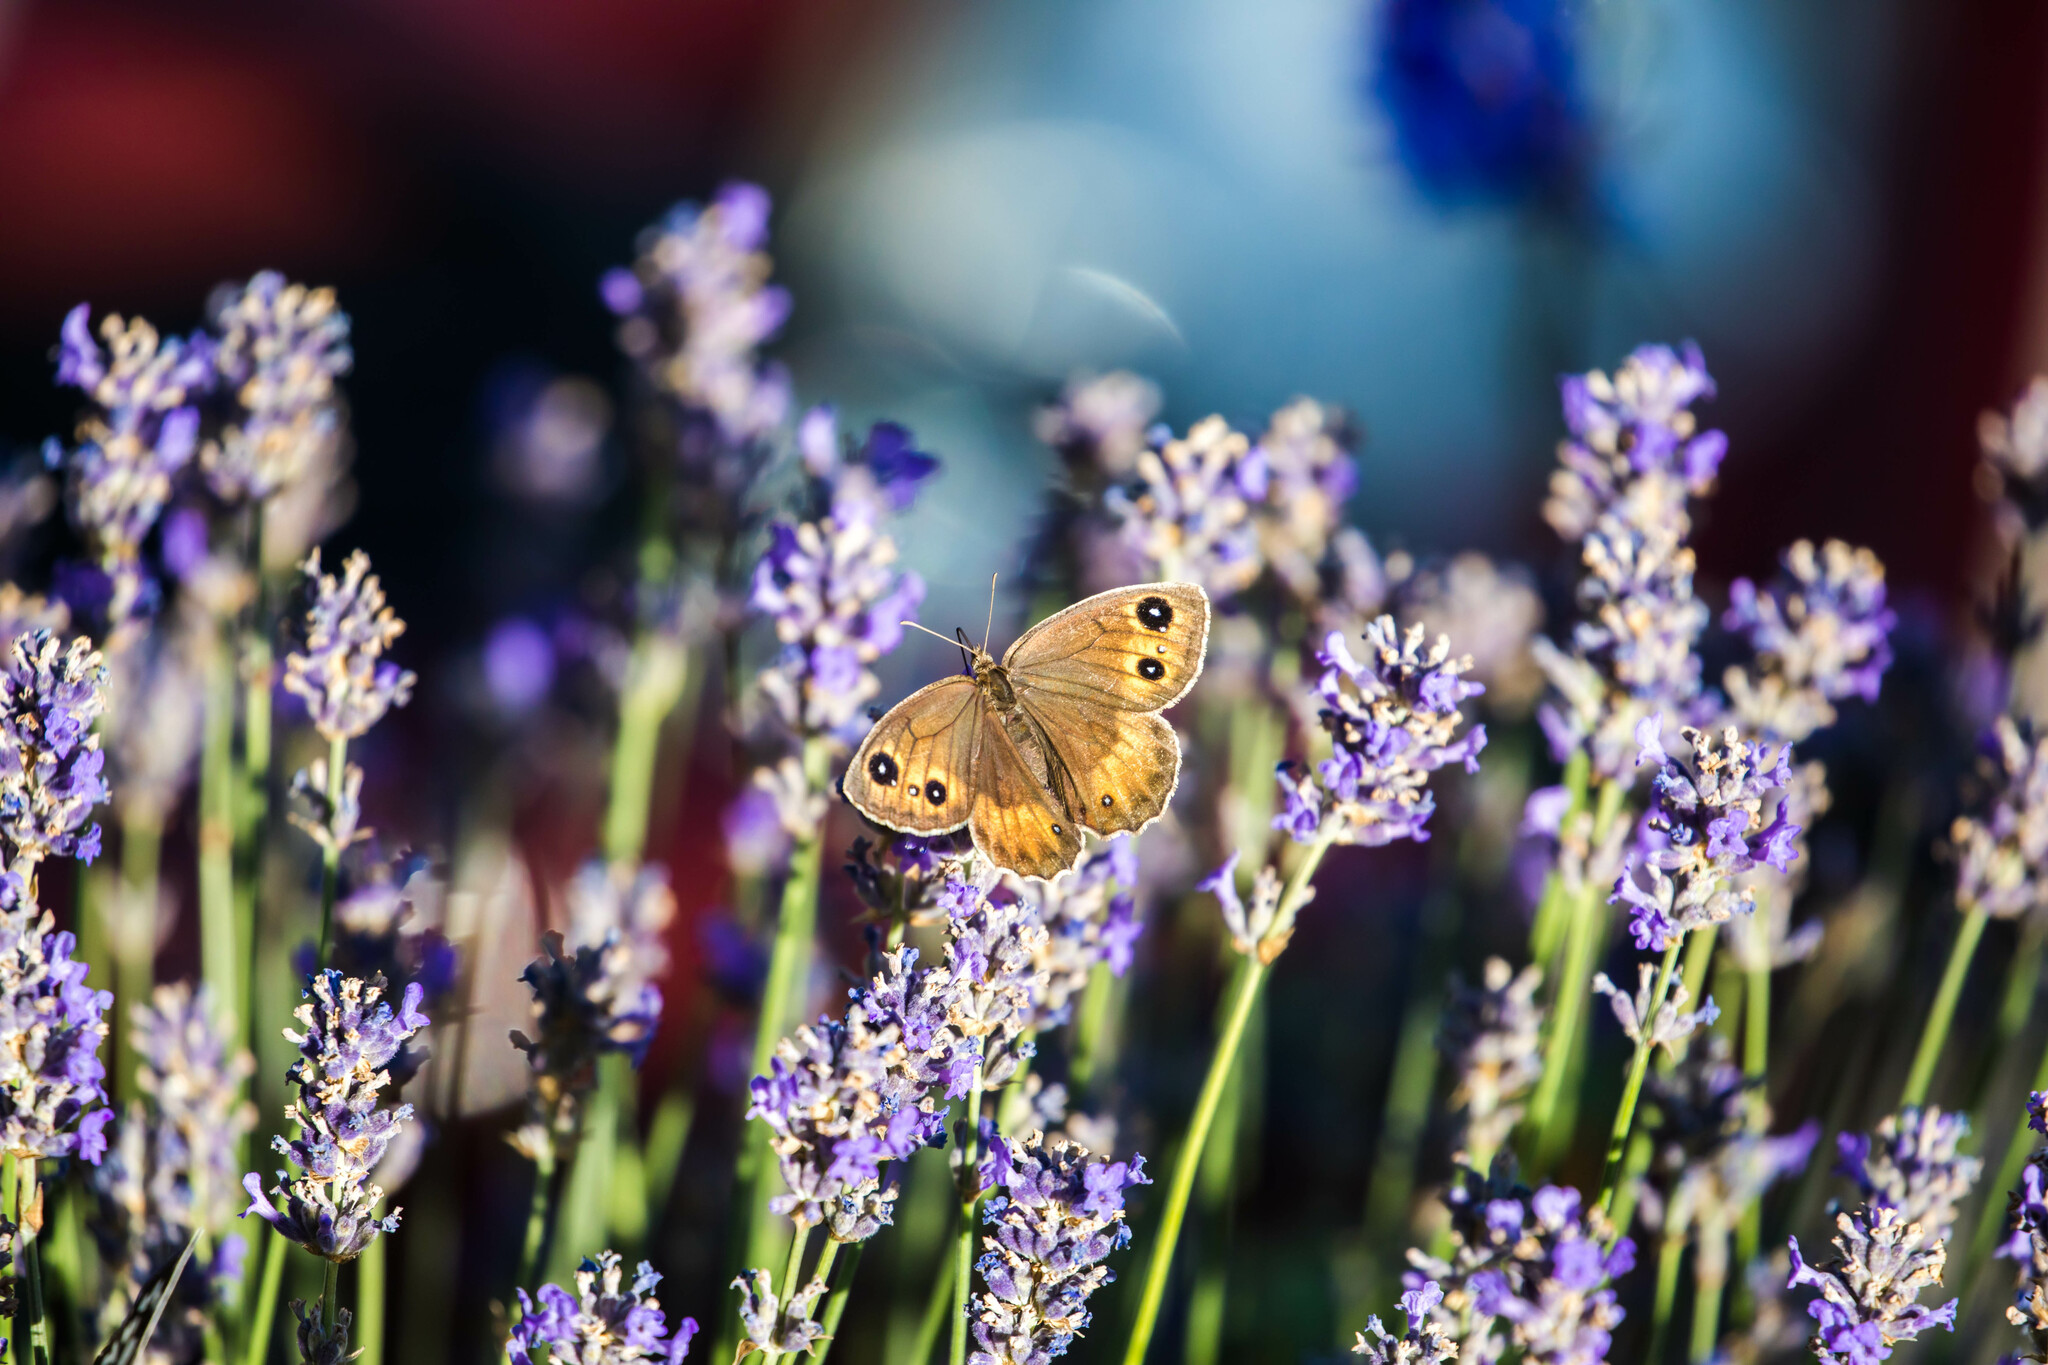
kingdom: Animalia
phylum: Arthropoda
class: Insecta
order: Lepidoptera
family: Nymphalidae
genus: Satyrus
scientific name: Satyrus ferula
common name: Great sooty satyr
